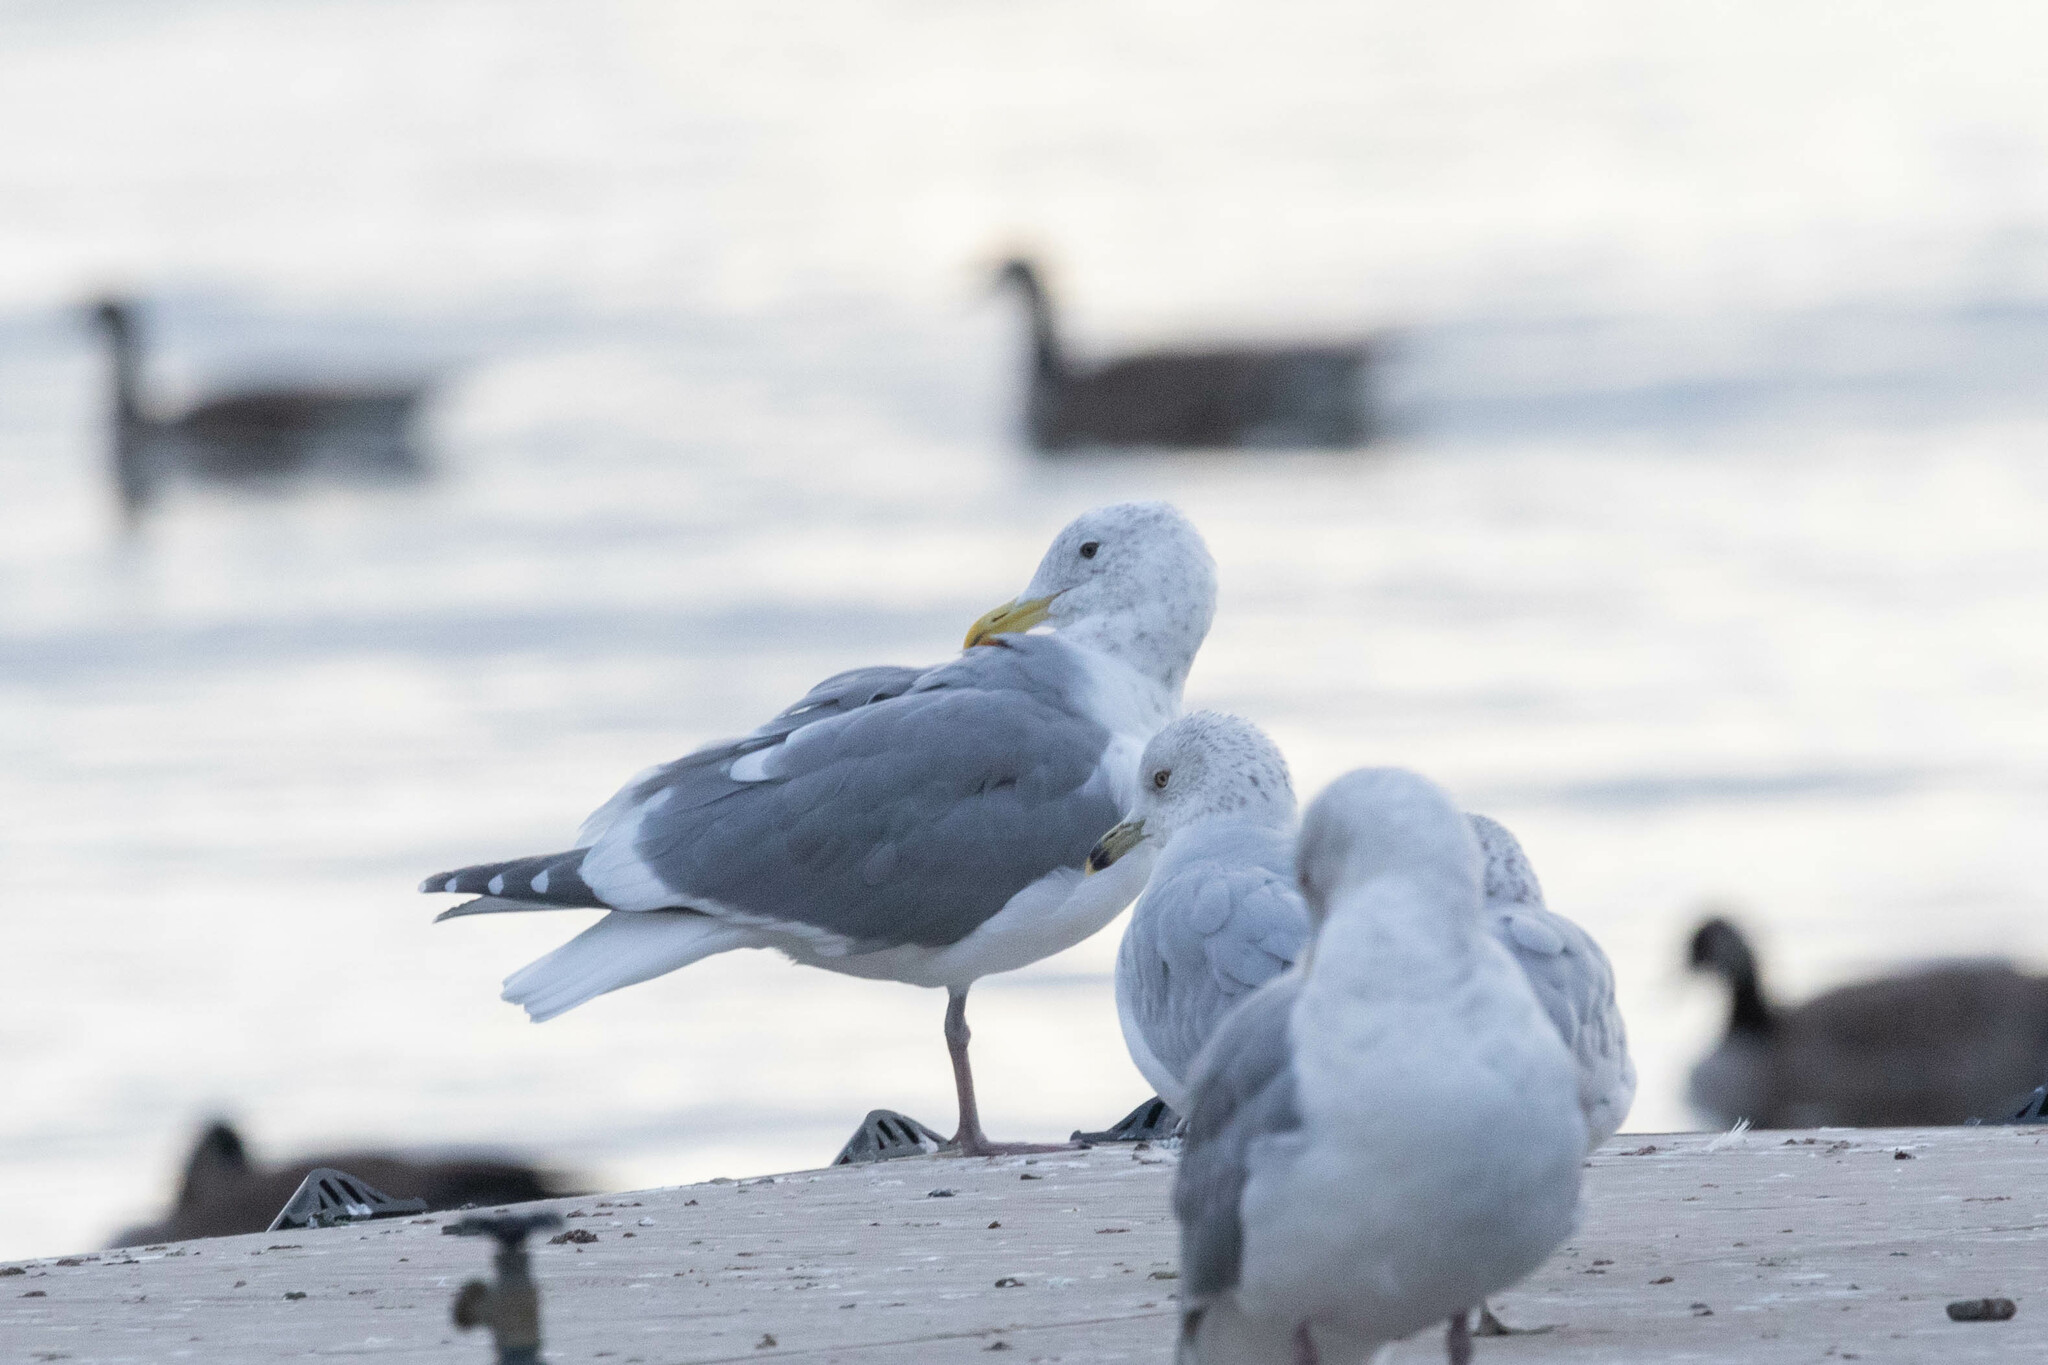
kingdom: Animalia
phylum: Chordata
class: Aves
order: Charadriiformes
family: Laridae
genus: Larus
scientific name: Larus glaucescens
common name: Glaucous-winged gull
